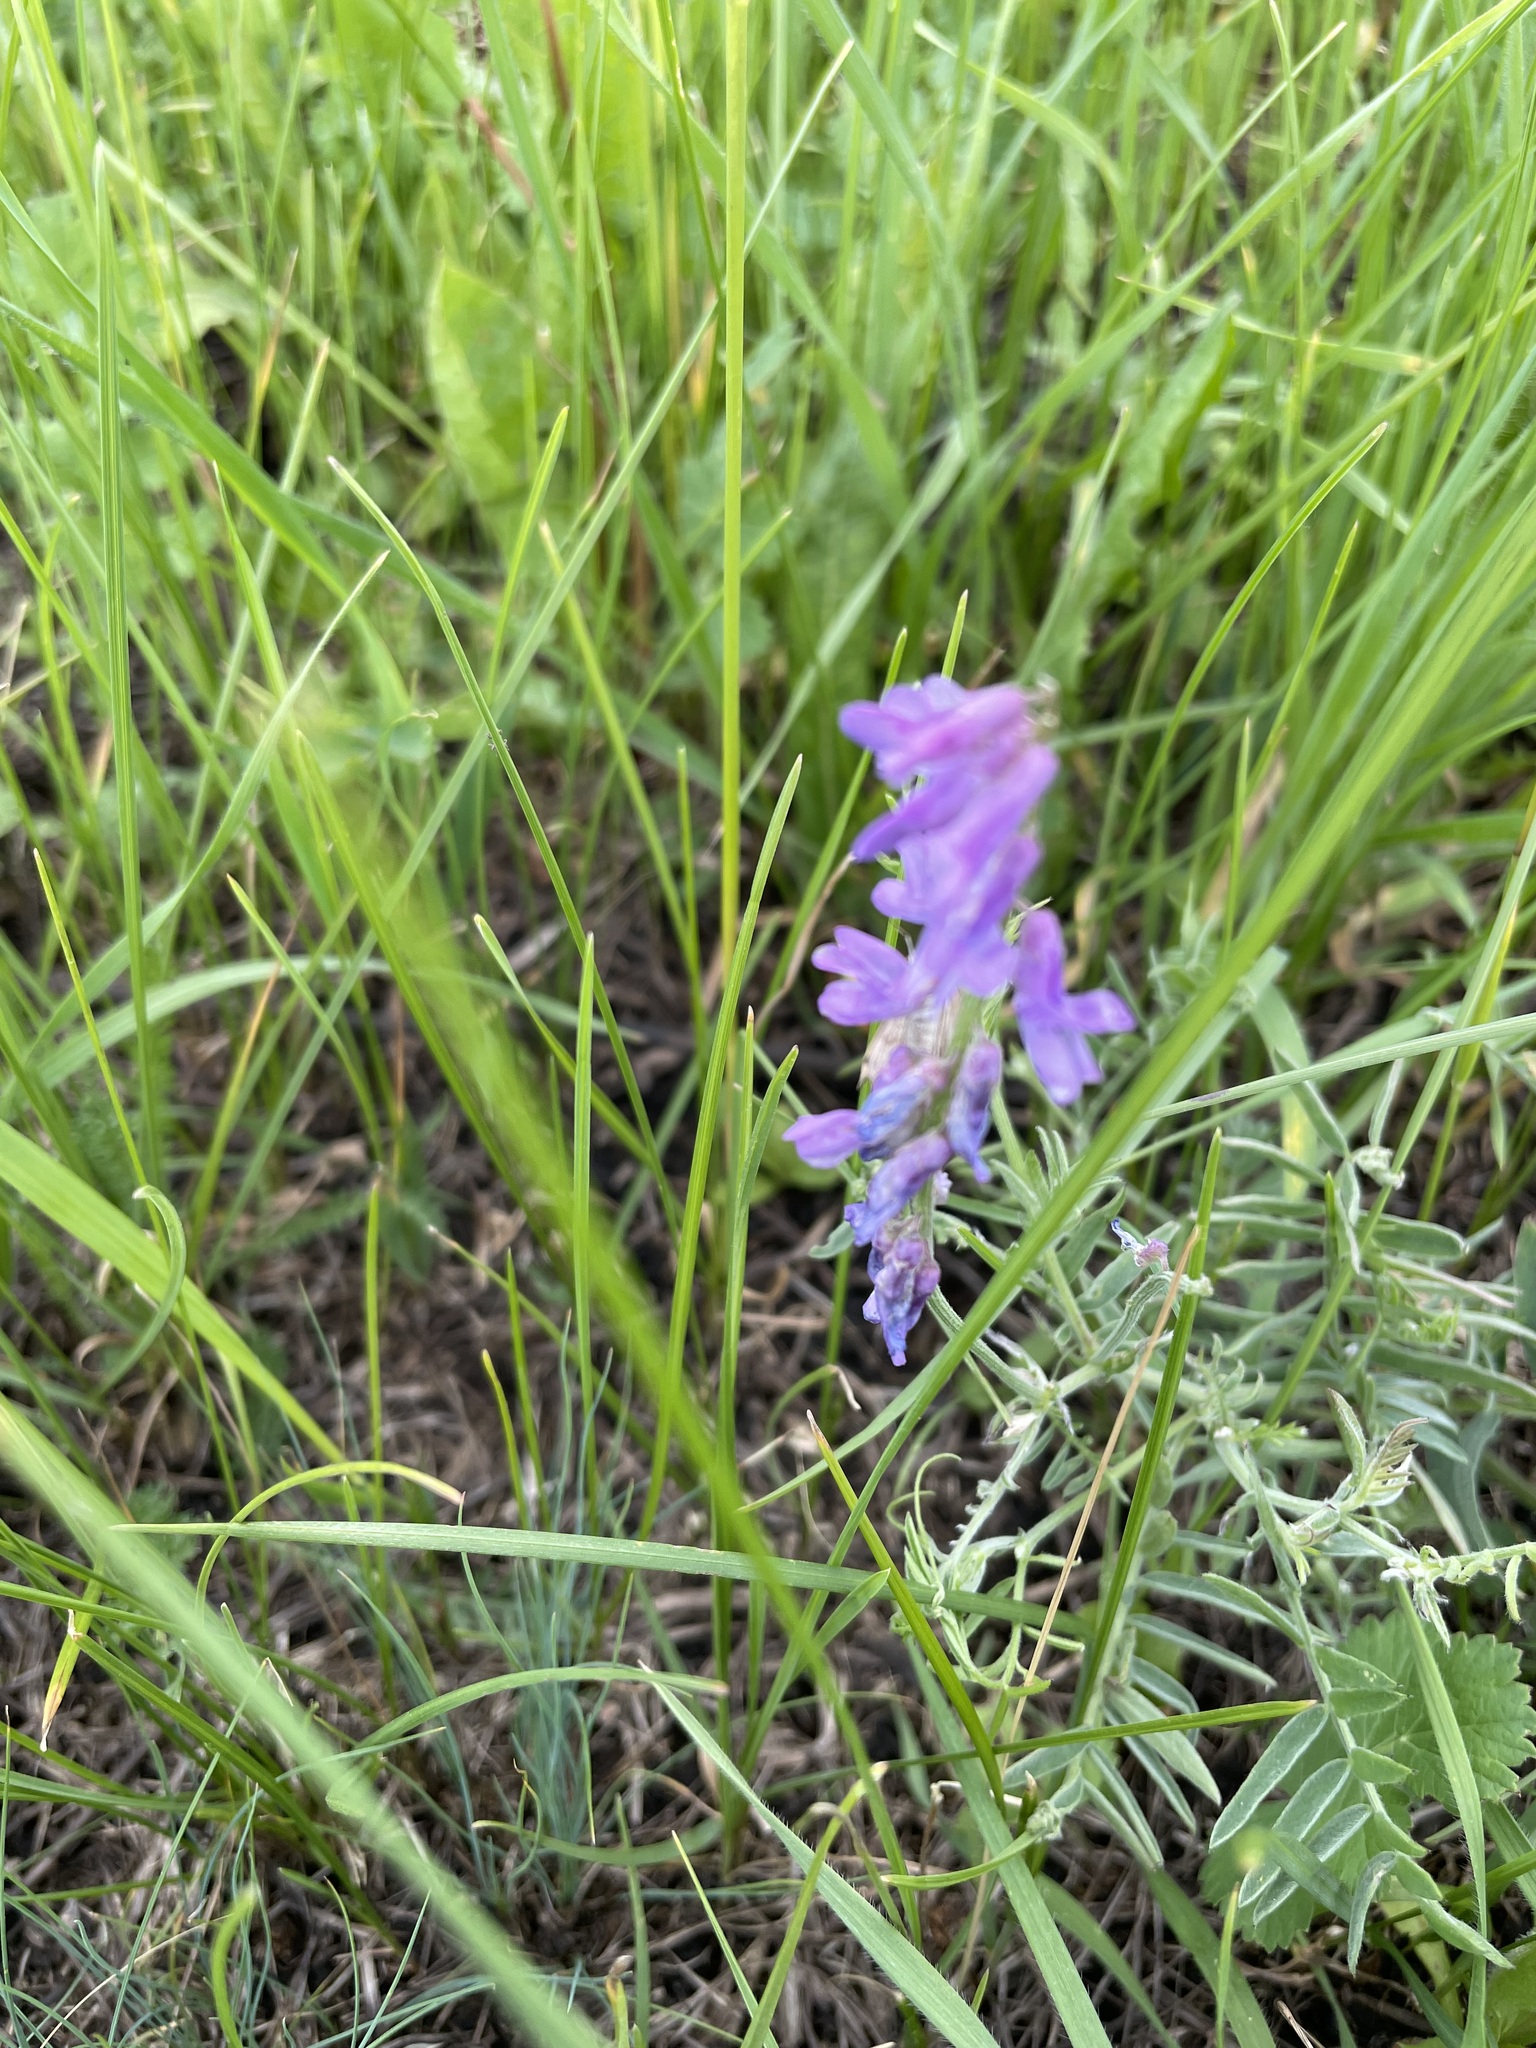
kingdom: Plantae
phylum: Tracheophyta
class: Magnoliopsida
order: Fabales
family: Fabaceae
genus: Vicia
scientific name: Vicia cracca
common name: Bird vetch
